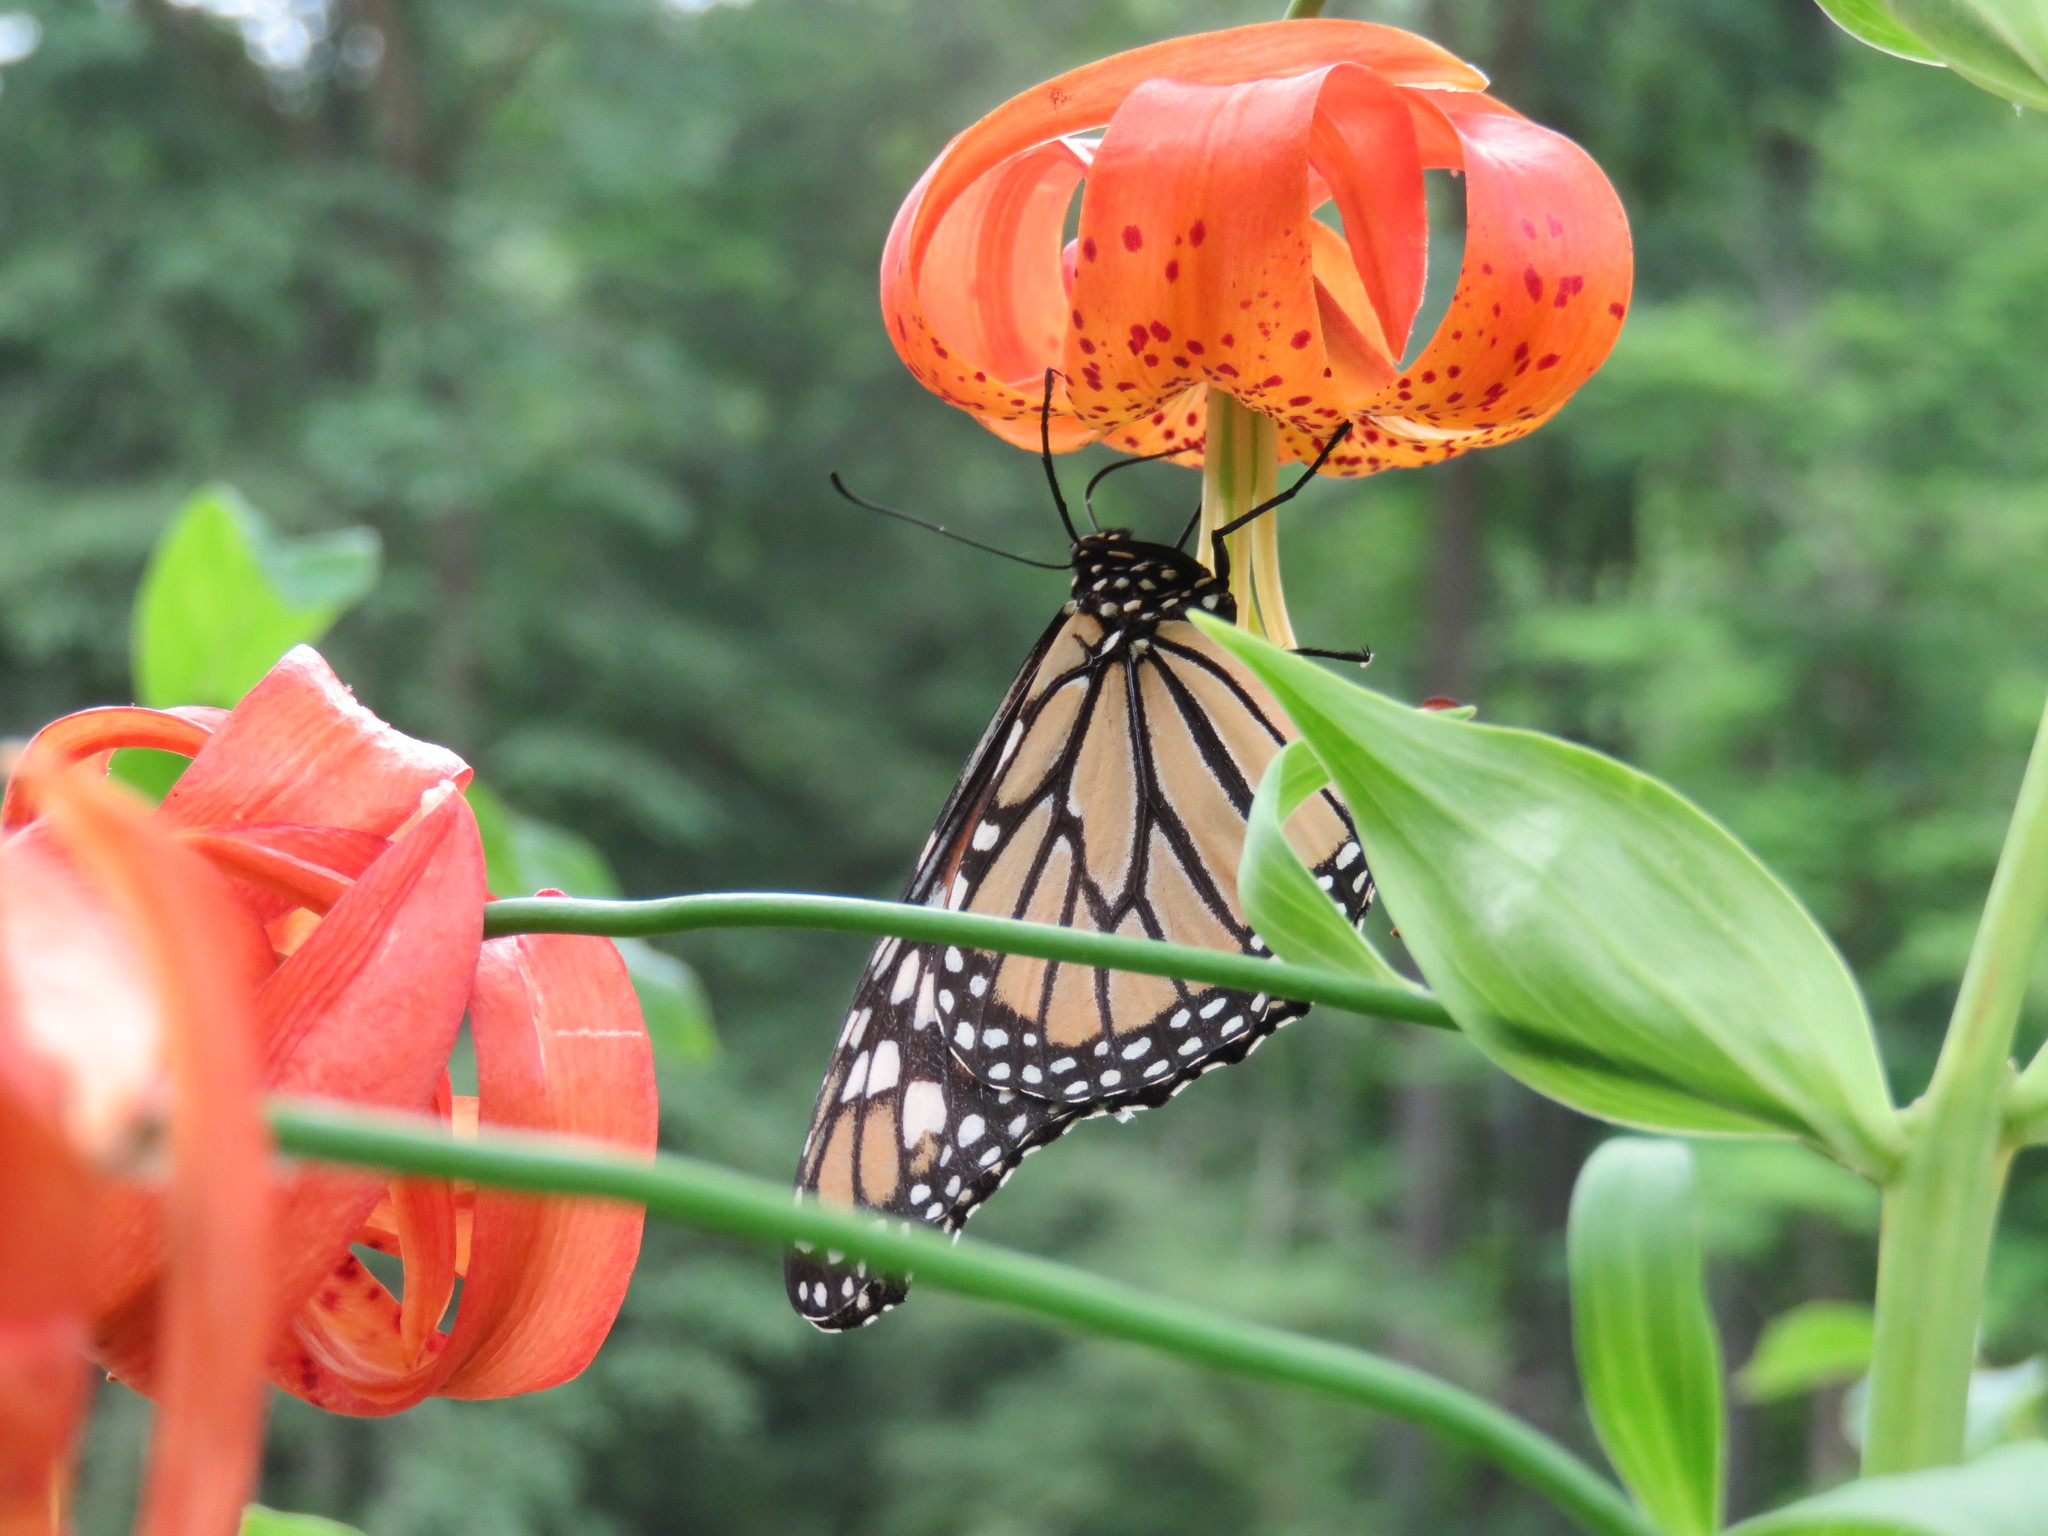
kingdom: Animalia
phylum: Arthropoda
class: Insecta
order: Lepidoptera
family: Nymphalidae
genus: Danaus
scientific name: Danaus plexippus
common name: Monarch
